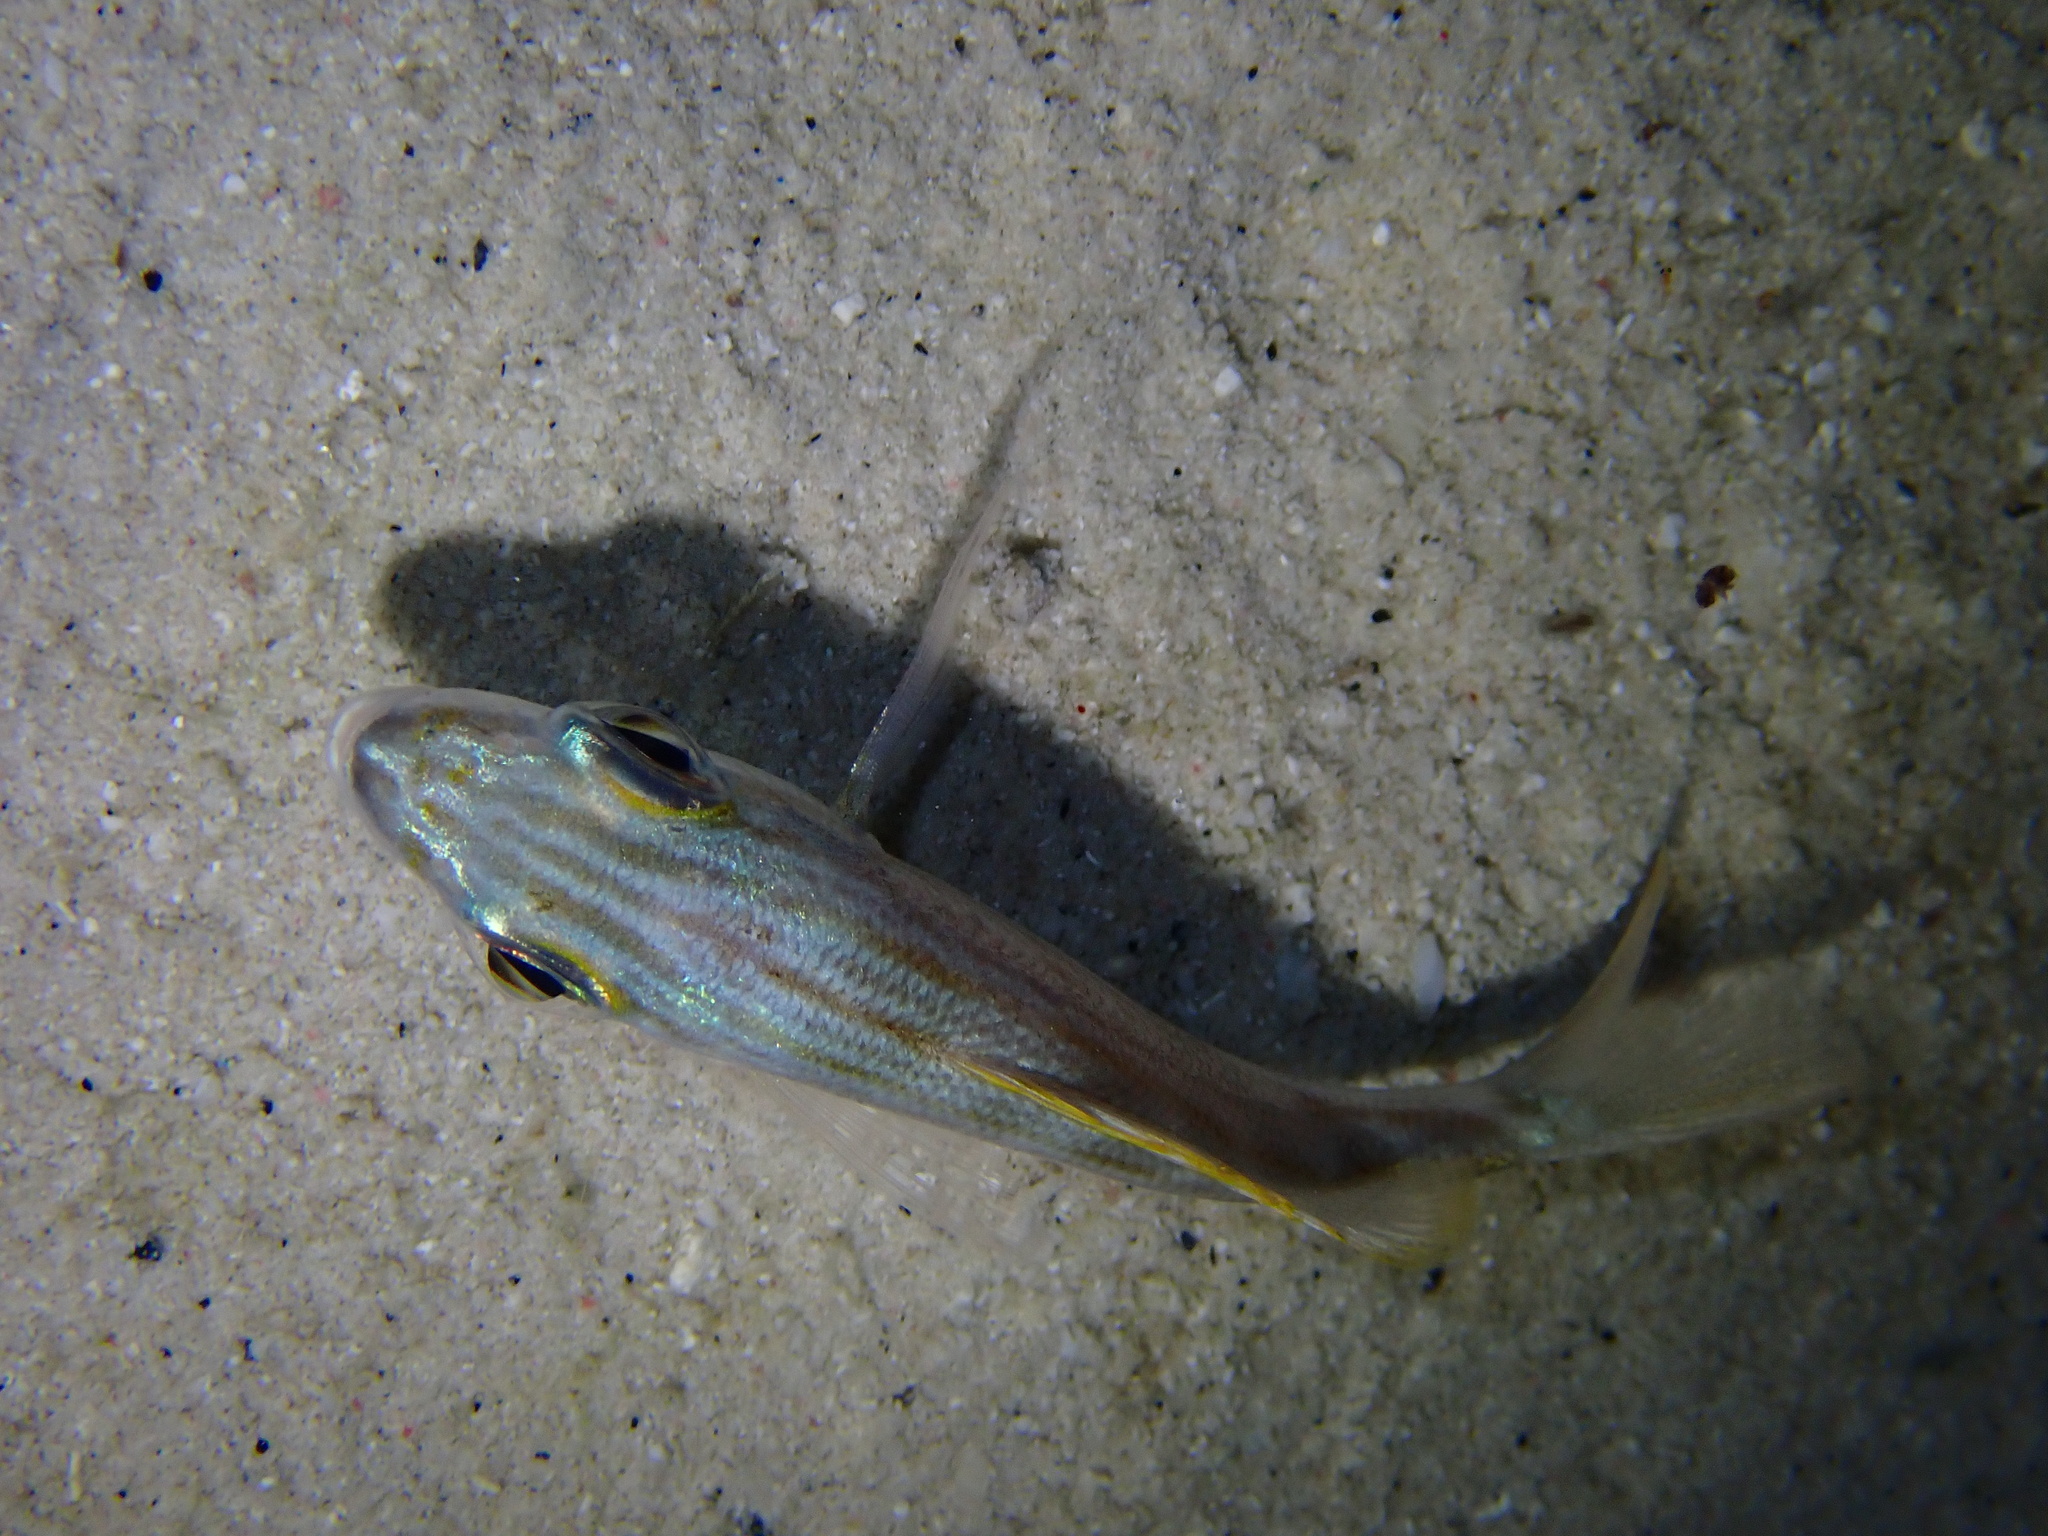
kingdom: Animalia
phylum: Chordata
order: Perciformes
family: Haemulidae
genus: Haemulon
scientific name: Haemulon flavolineatum
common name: French grunt
